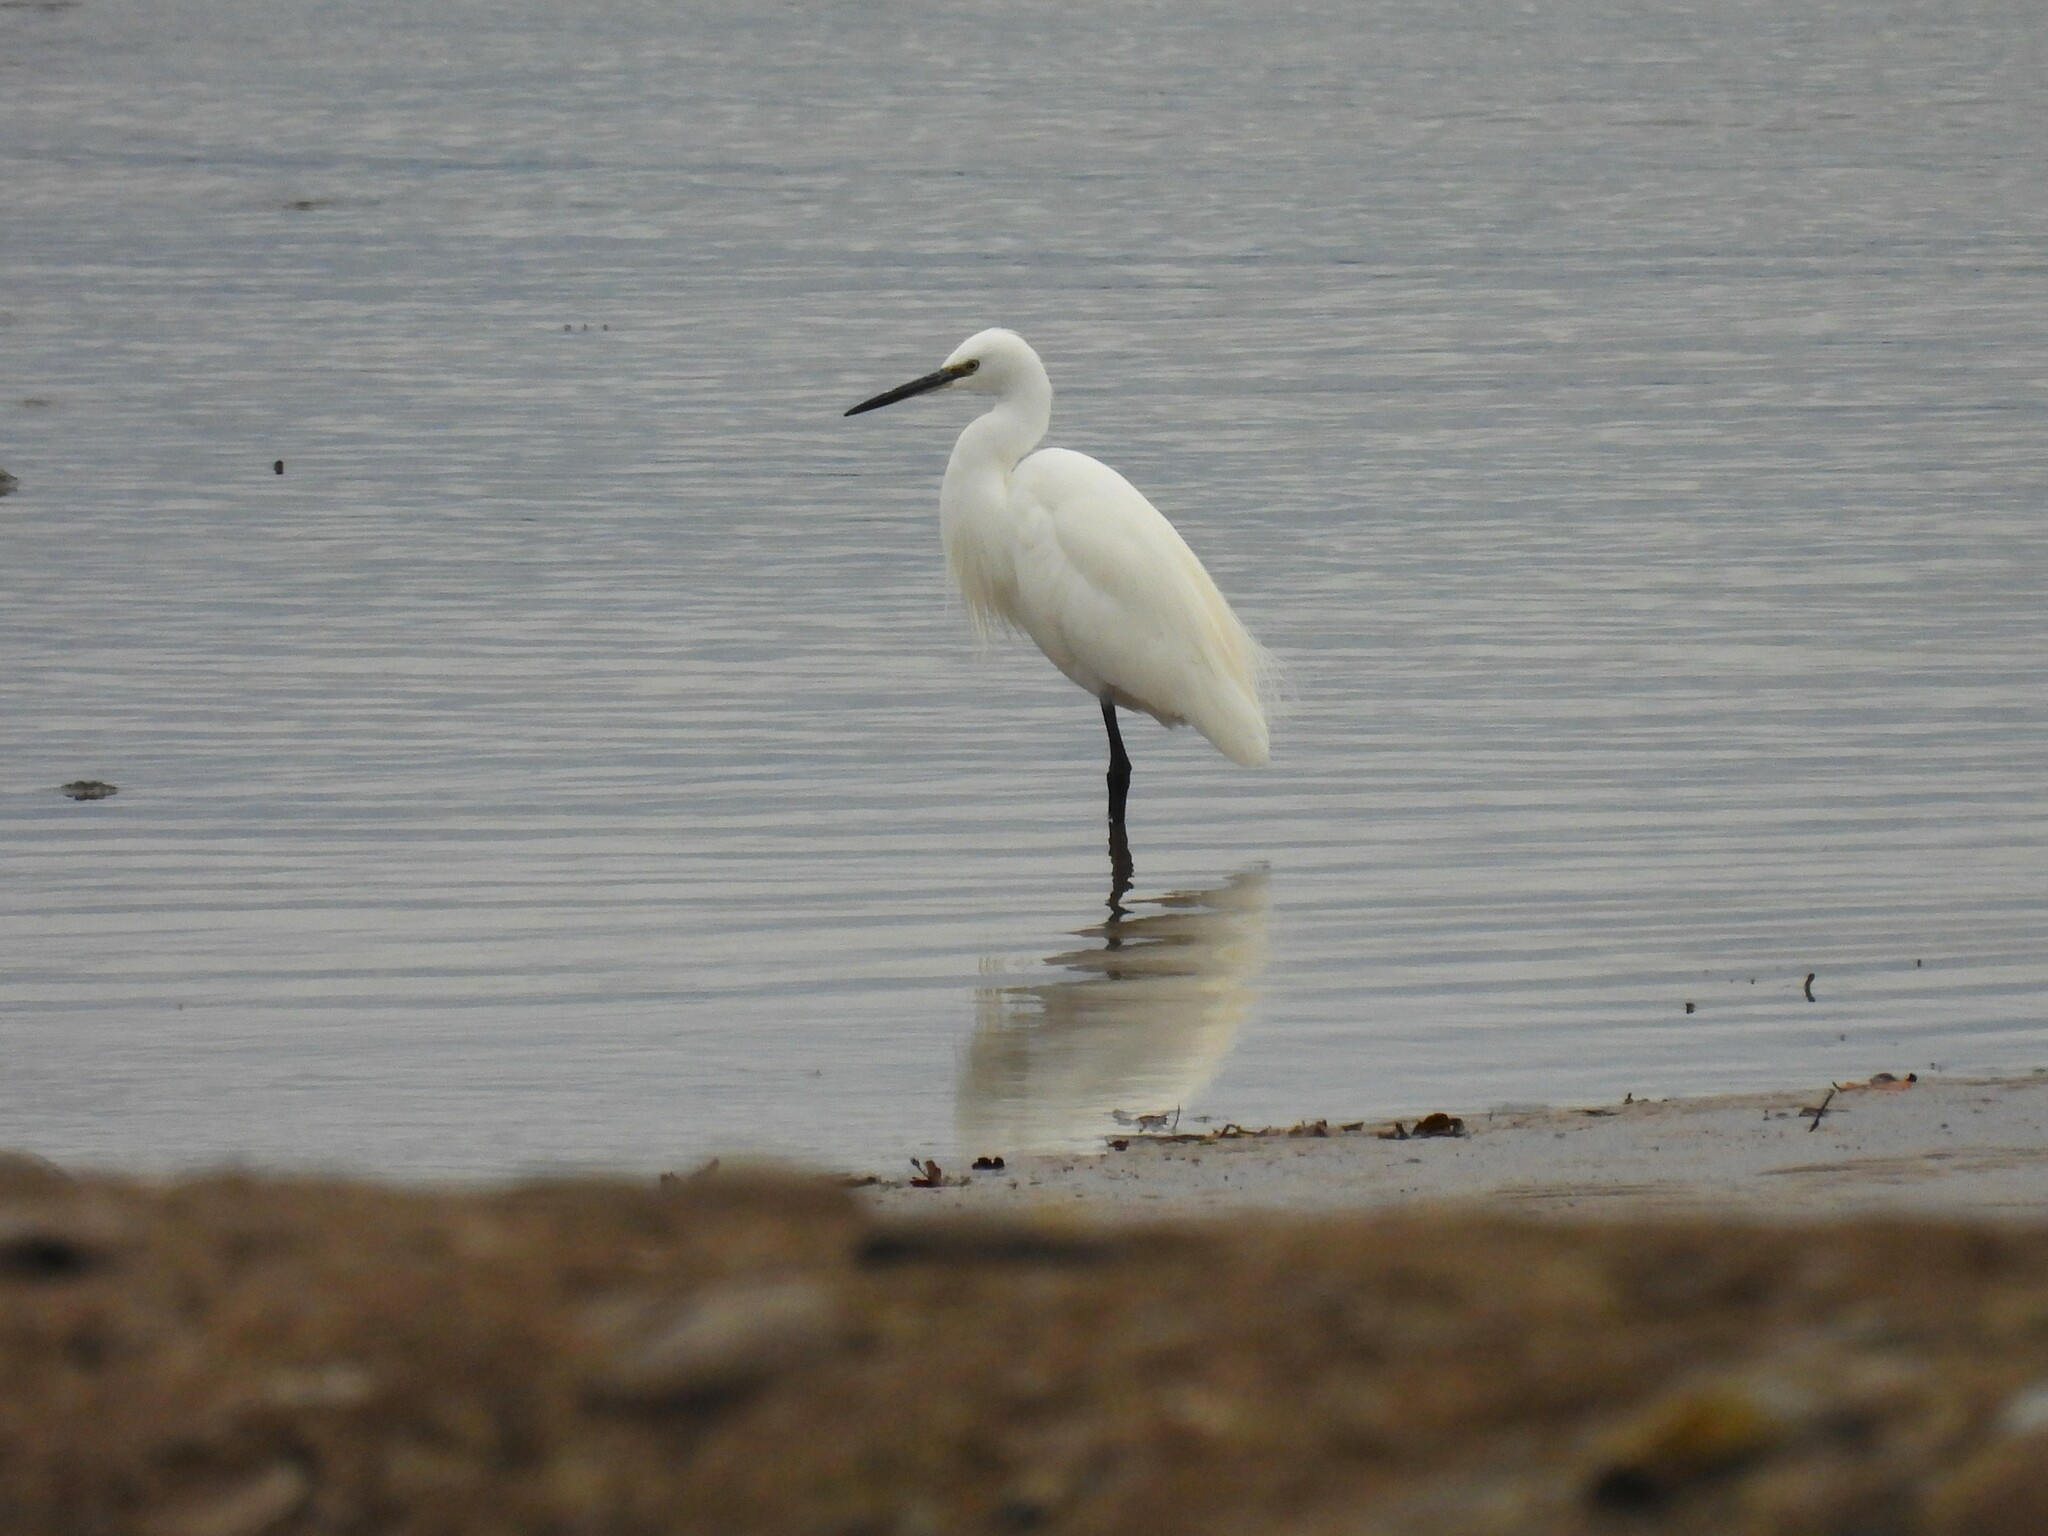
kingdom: Animalia
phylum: Chordata
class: Aves
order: Pelecaniformes
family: Ardeidae
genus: Egretta
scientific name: Egretta garzetta
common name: Little egret
